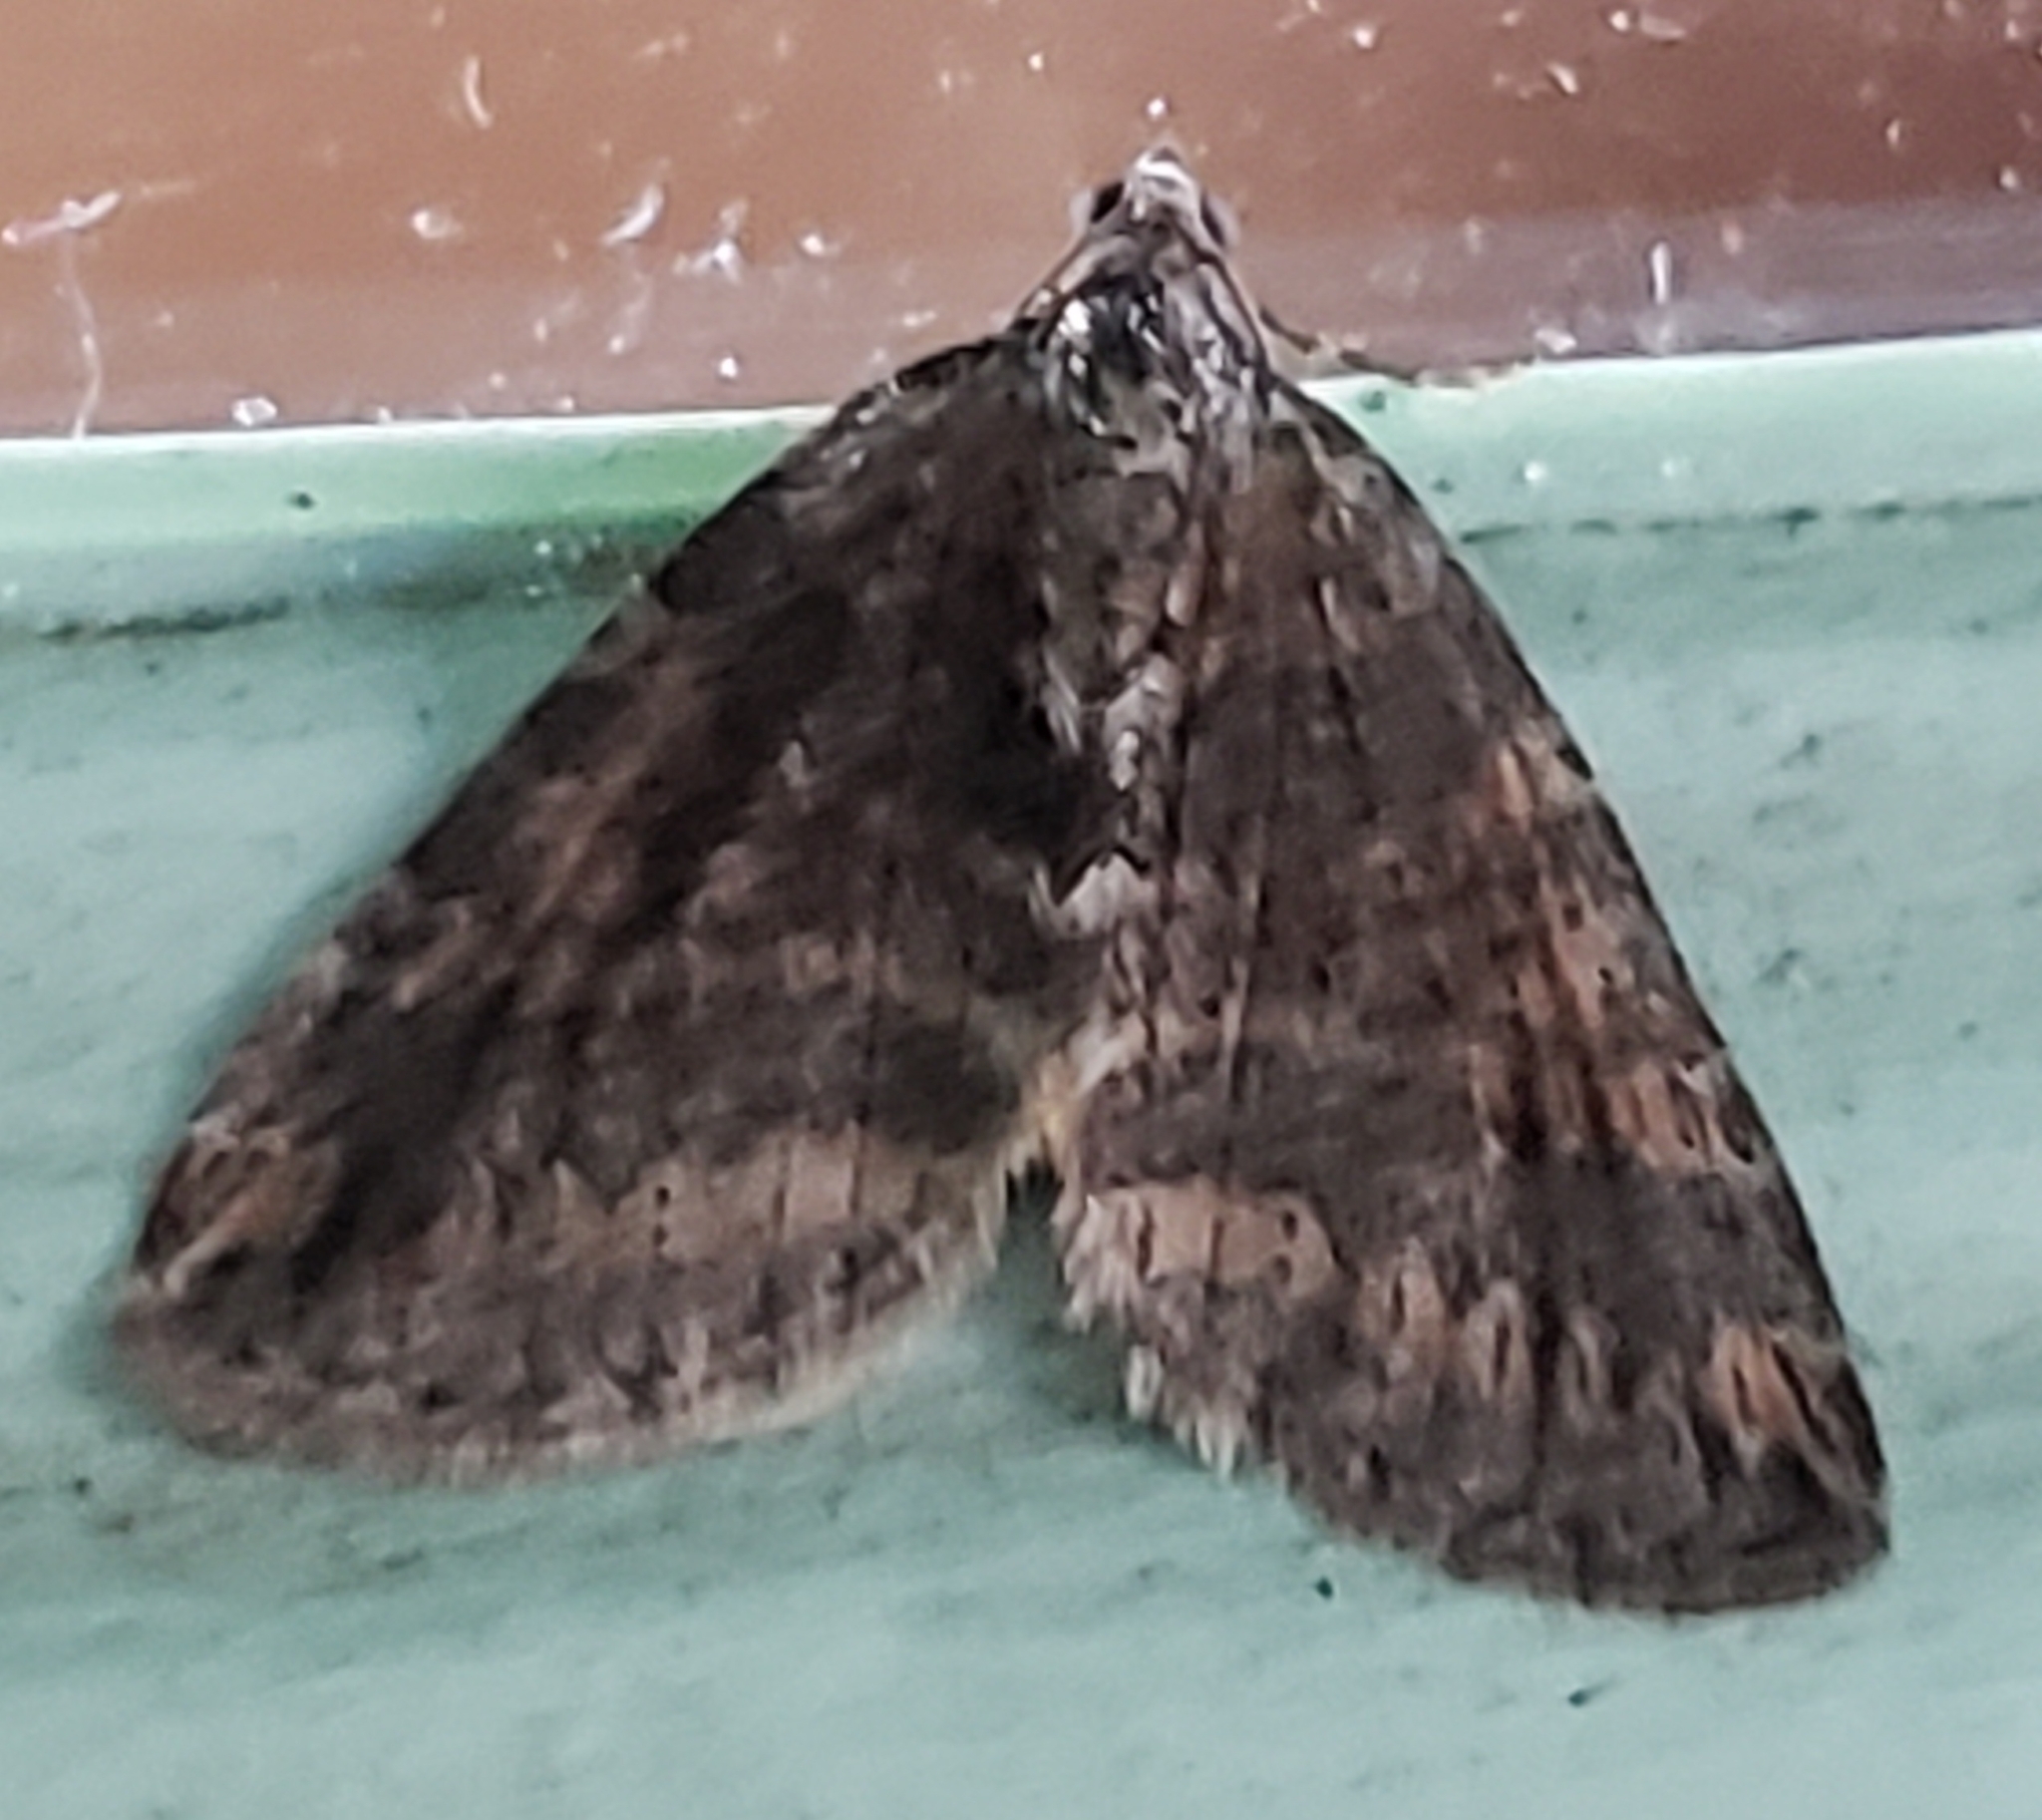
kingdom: Animalia
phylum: Arthropoda
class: Insecta
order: Lepidoptera
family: Geometridae
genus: Hydriomena
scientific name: Hydriomena nubilofasciata
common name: Oak winter highflier moth
